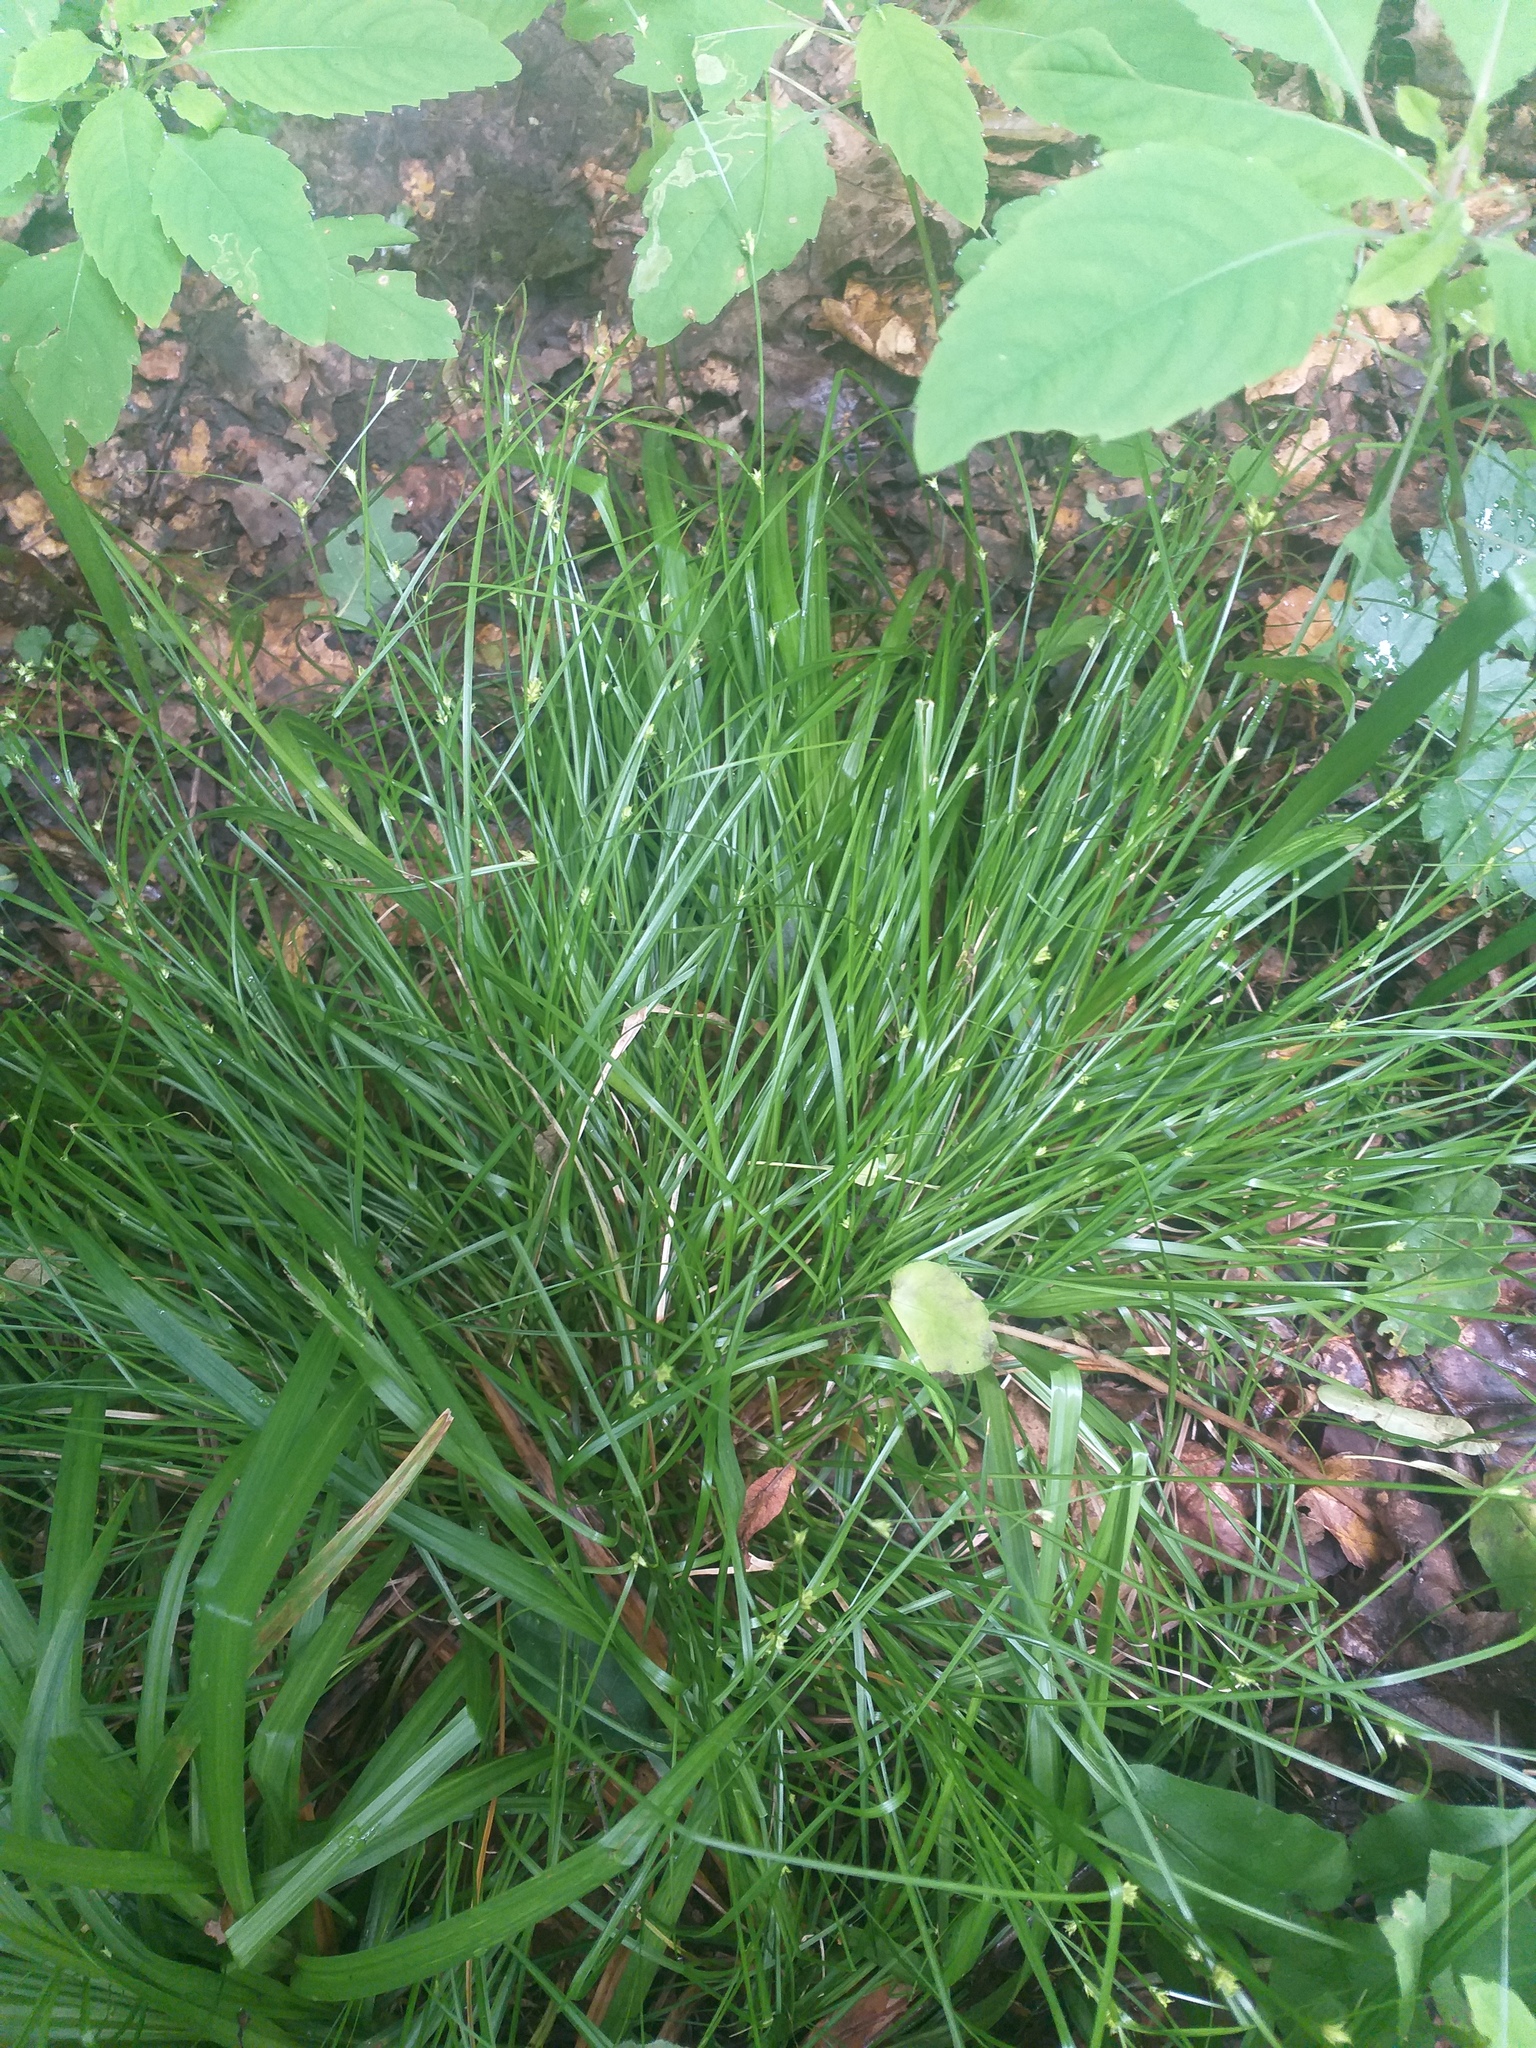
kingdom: Plantae
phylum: Tracheophyta
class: Liliopsida
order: Poales
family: Cyperaceae
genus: Carex
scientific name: Carex remota
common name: Remote sedge
